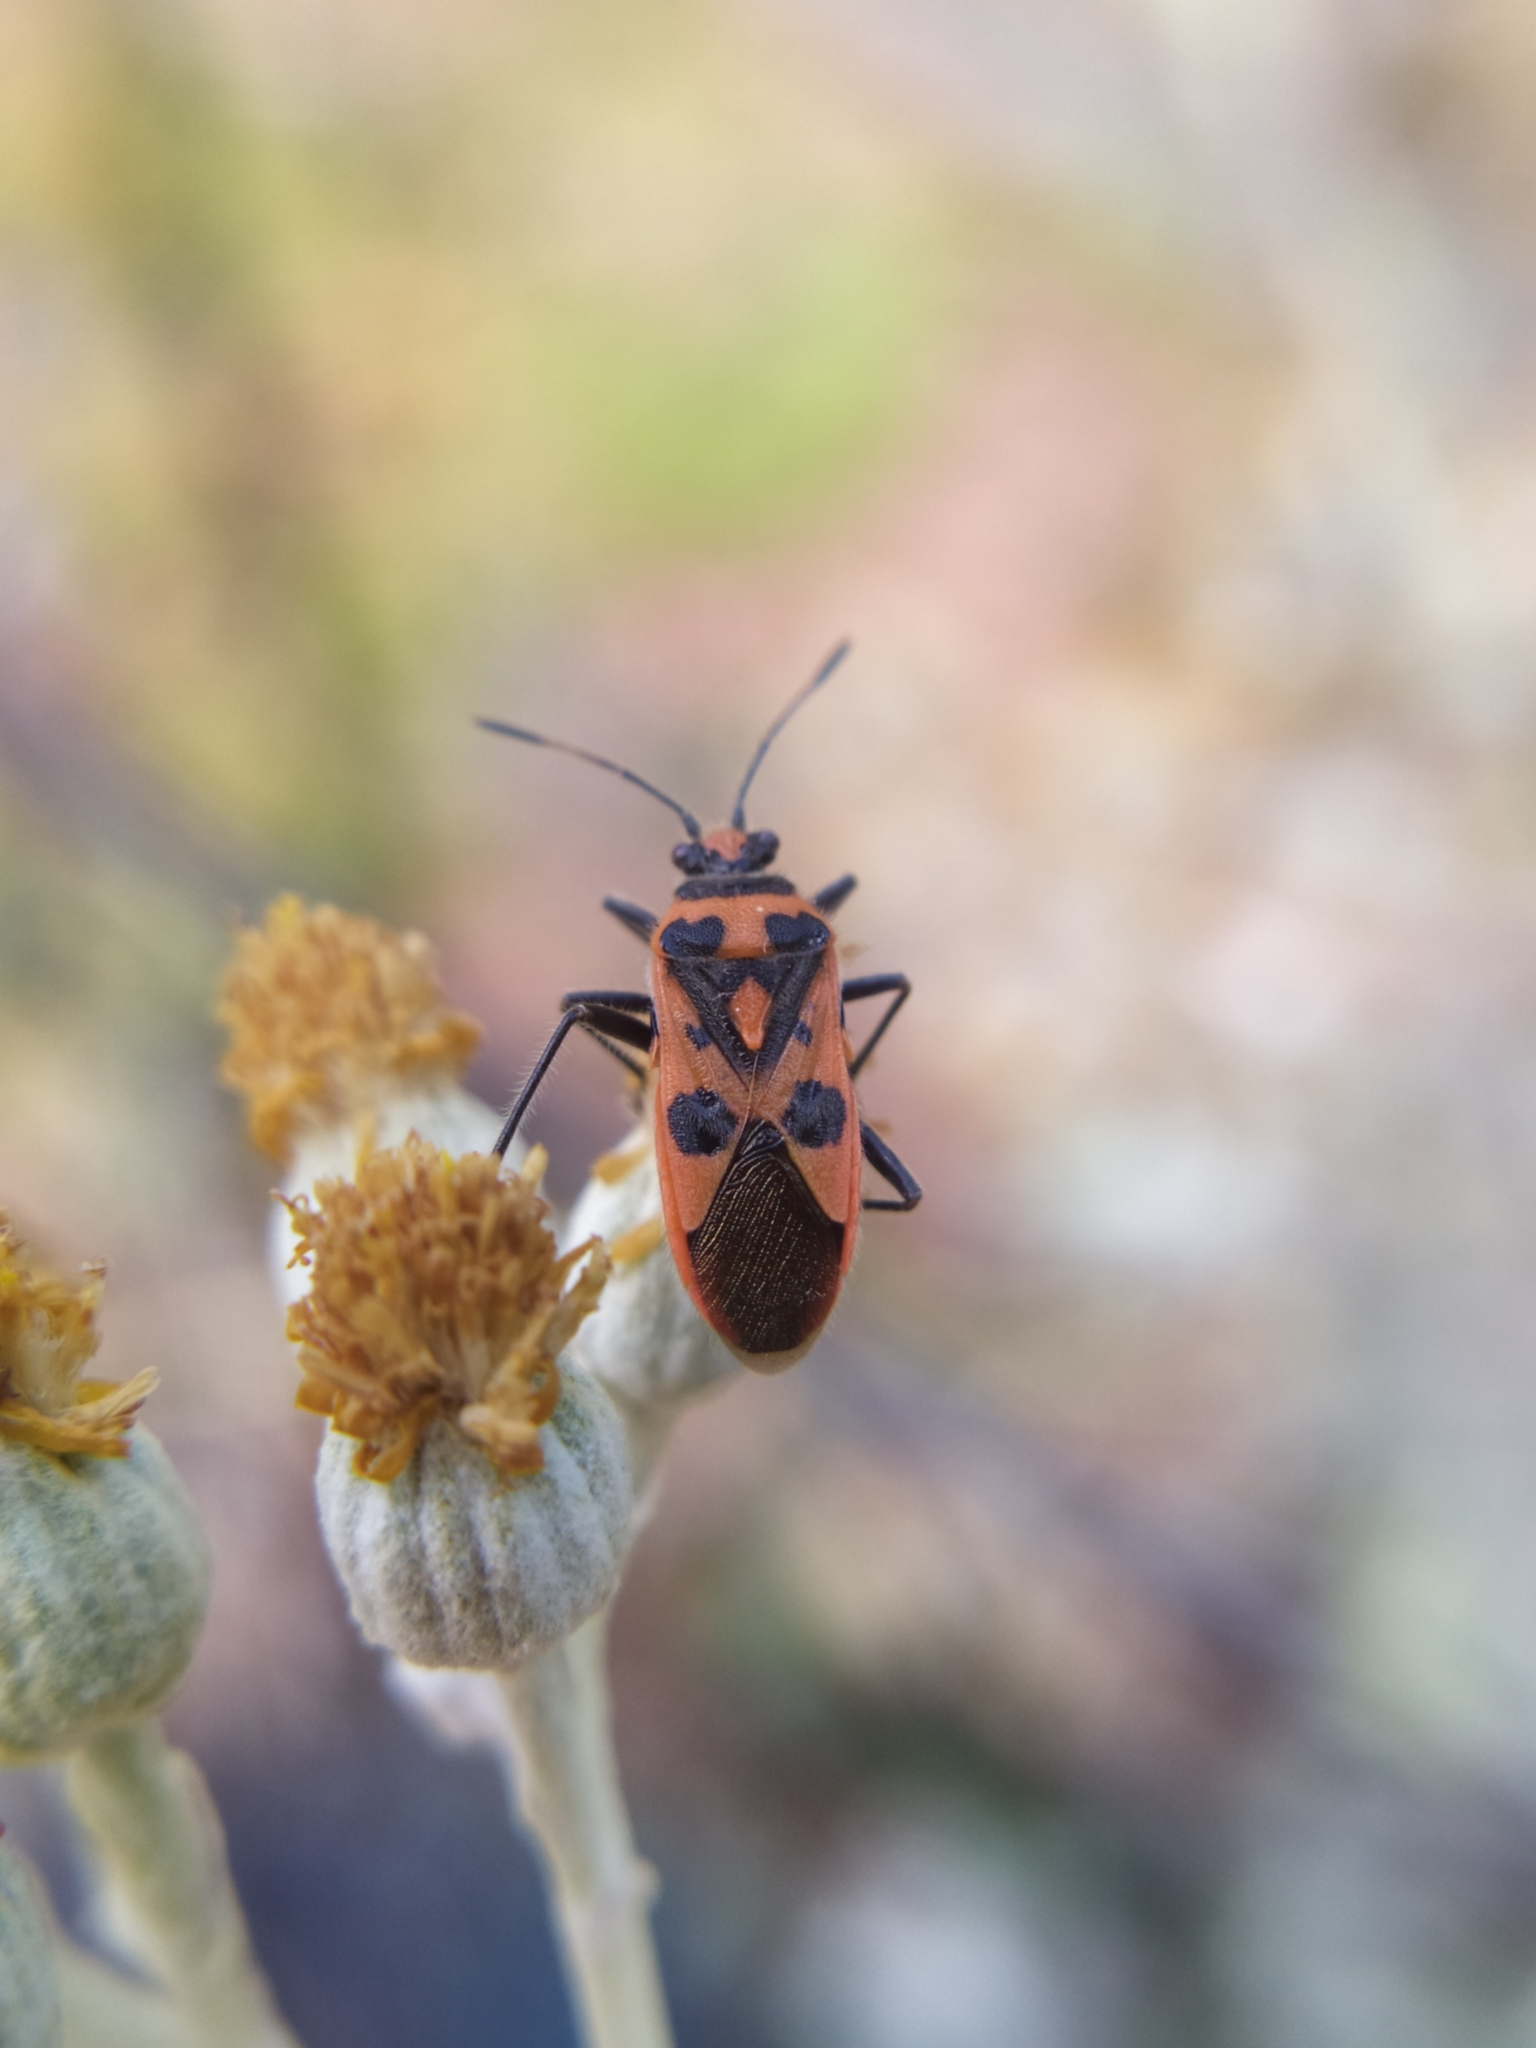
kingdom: Animalia
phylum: Arthropoda
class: Insecta
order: Hemiptera
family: Rhopalidae
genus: Corizus
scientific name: Corizus hyoscyami
